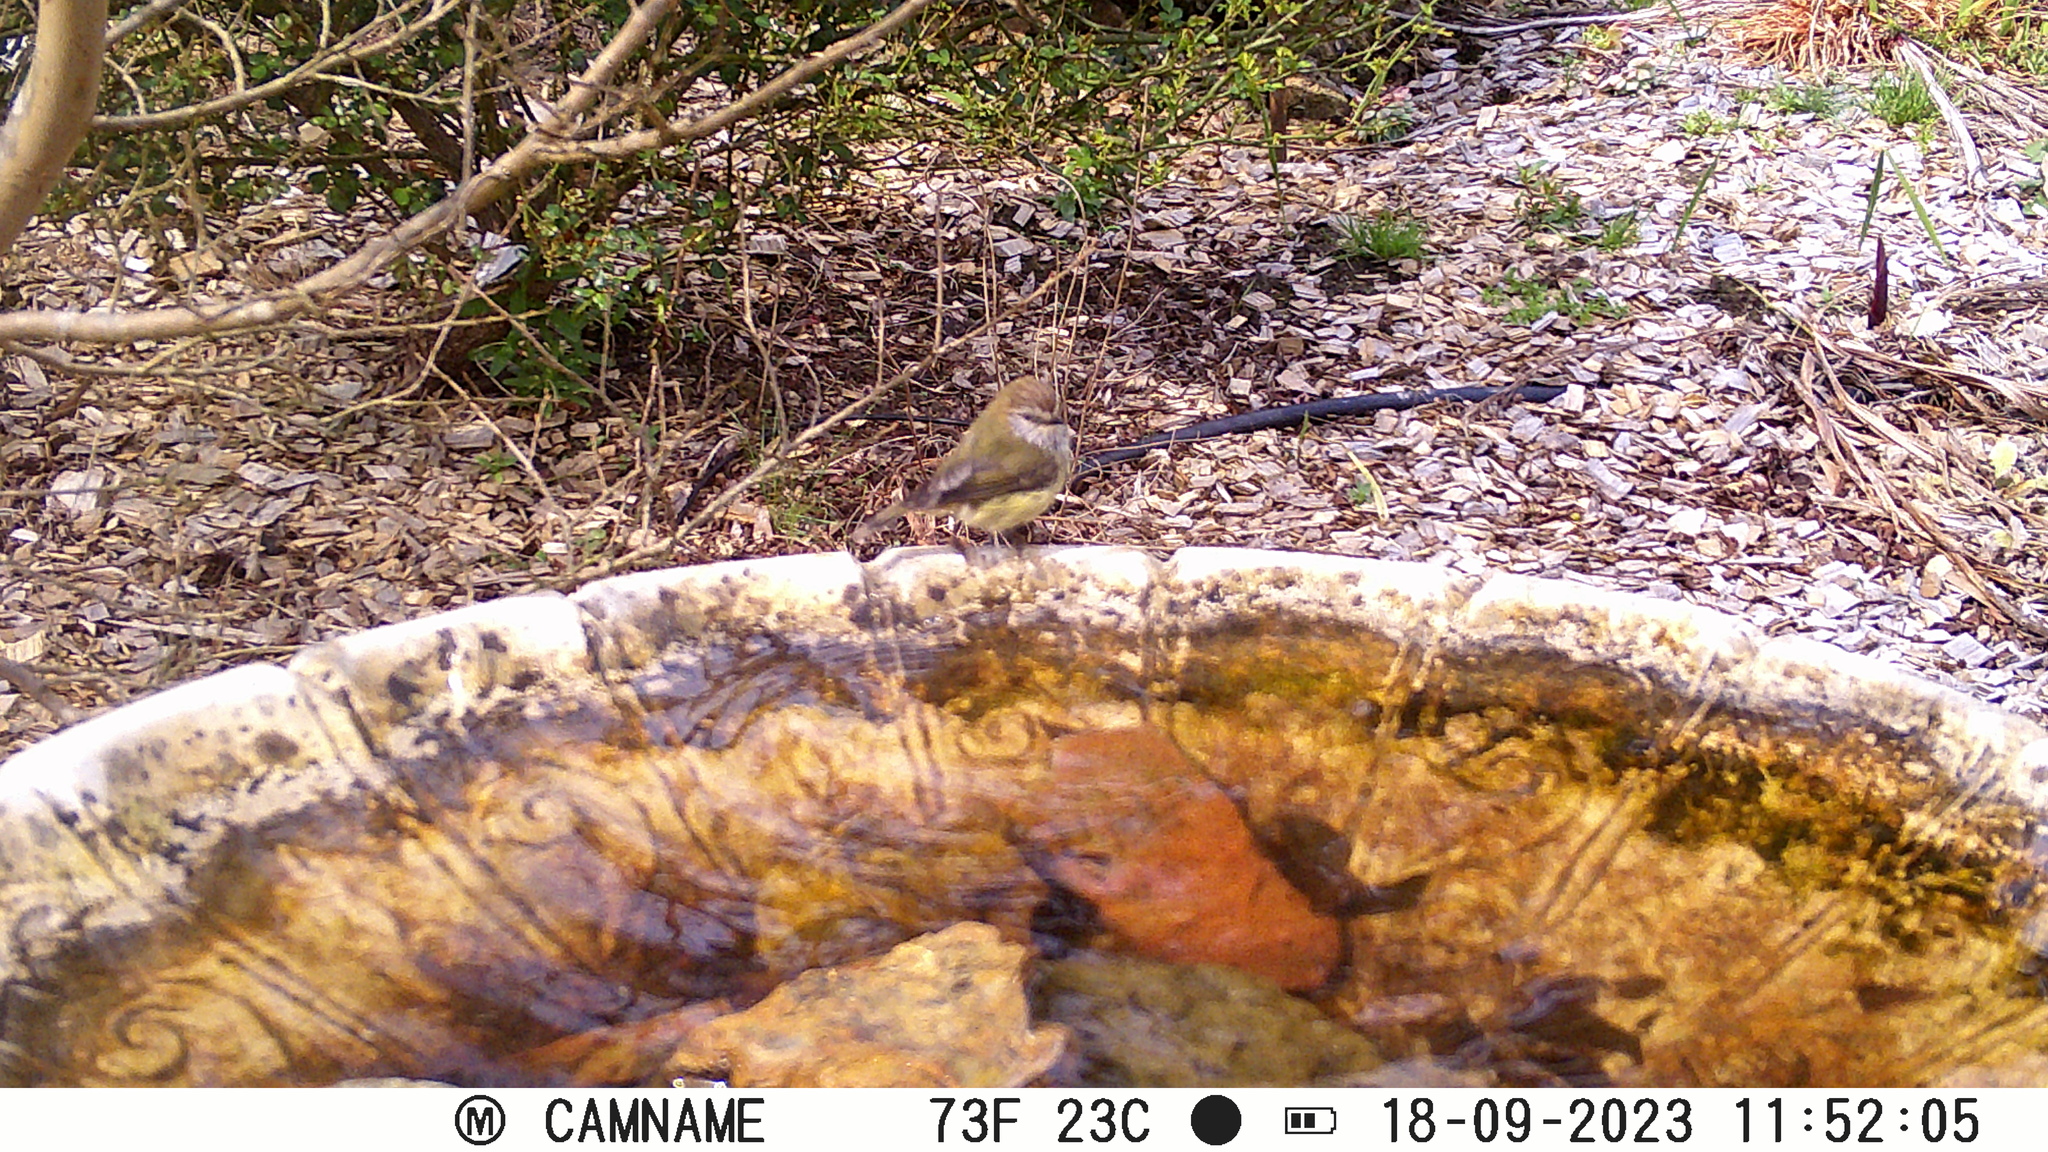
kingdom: Animalia
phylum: Chordata
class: Aves
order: Passeriformes
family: Acanthizidae
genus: Acanthiza
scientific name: Acanthiza lineata
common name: Striated thornbill
